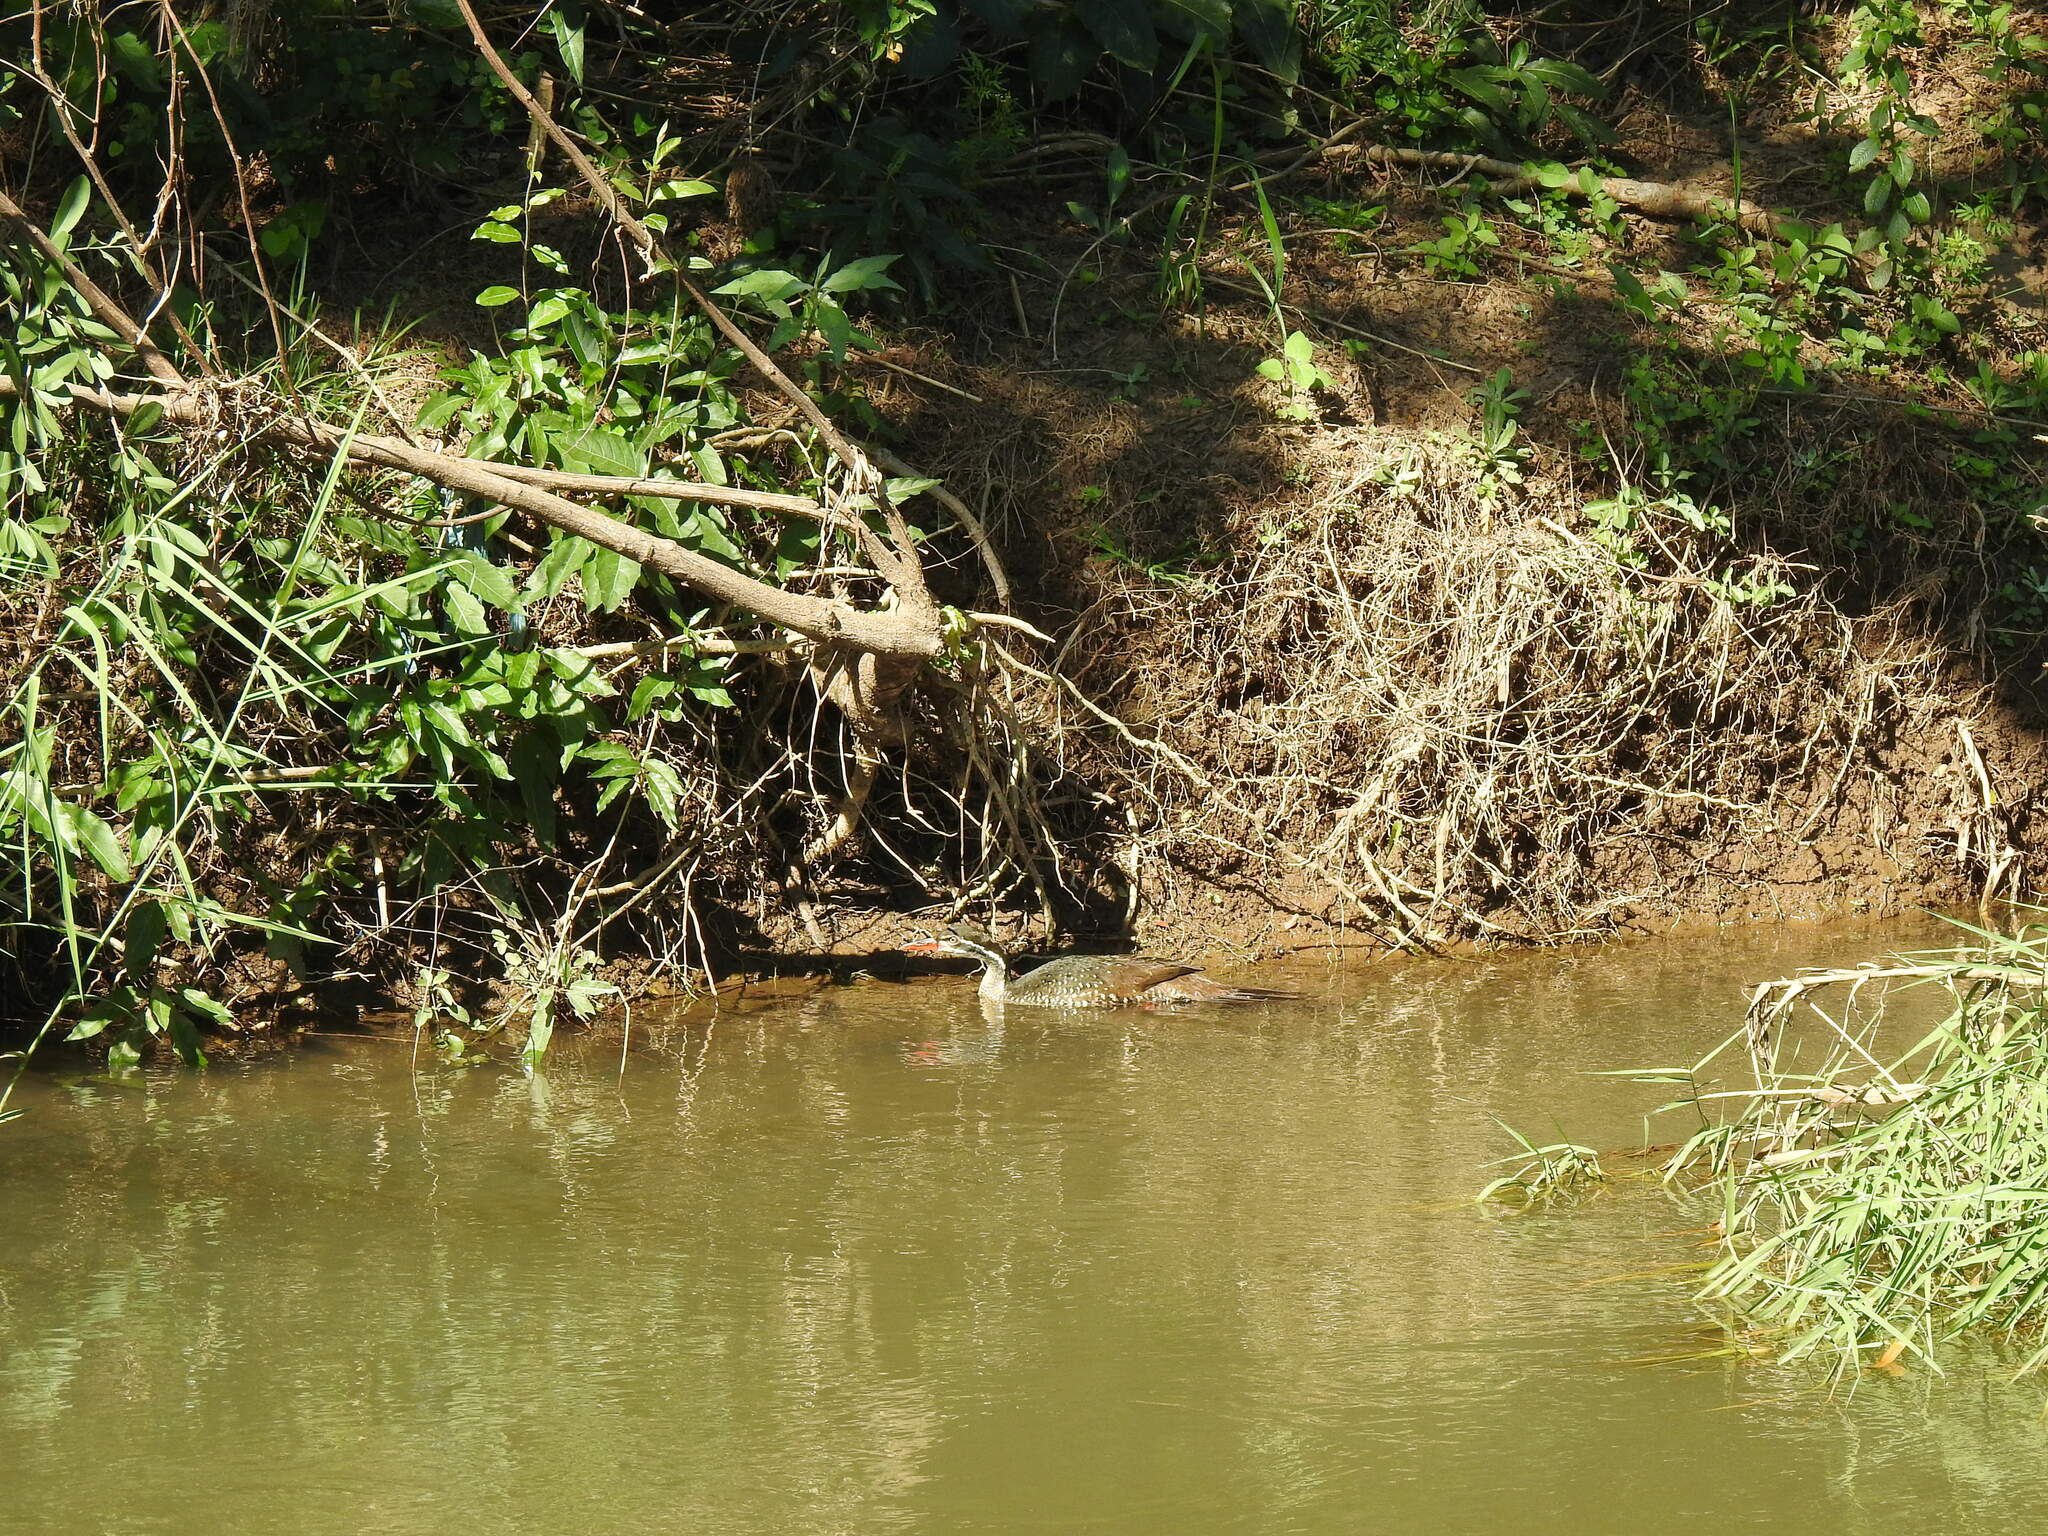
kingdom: Animalia
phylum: Chordata
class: Aves
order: Gruiformes
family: Heliornithidae
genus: Podica
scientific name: Podica senegalensis
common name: African finfoot
